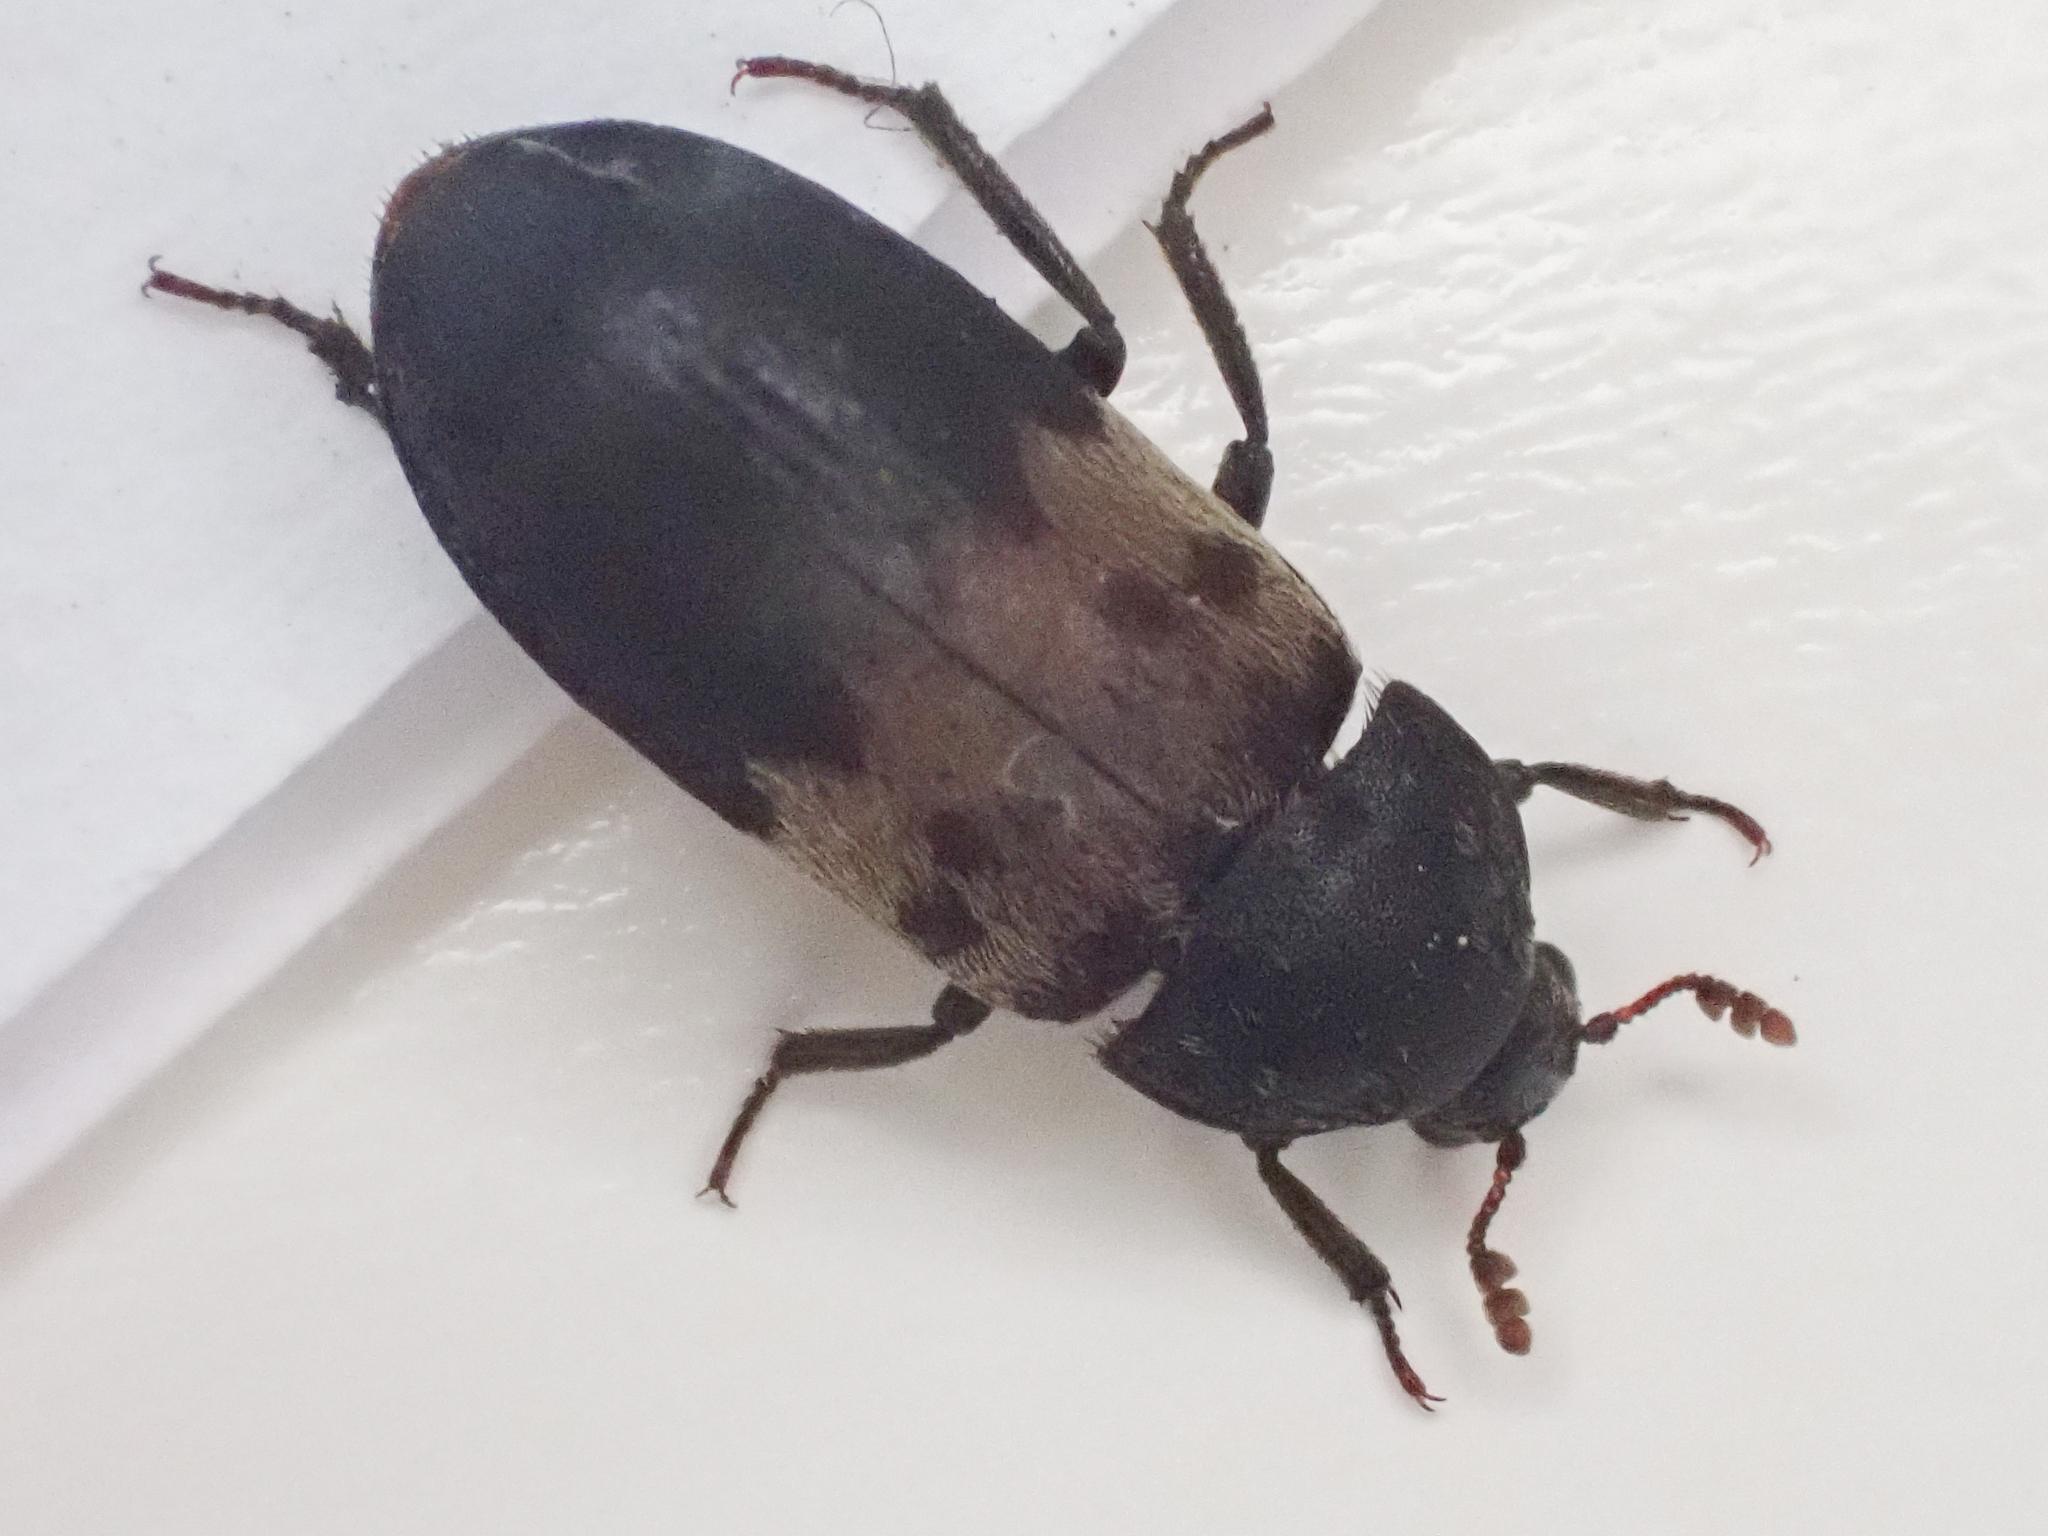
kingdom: Animalia
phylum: Arthropoda
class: Insecta
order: Coleoptera
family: Dermestidae
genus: Dermestes
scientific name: Dermestes lardarius
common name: Larder beetle
